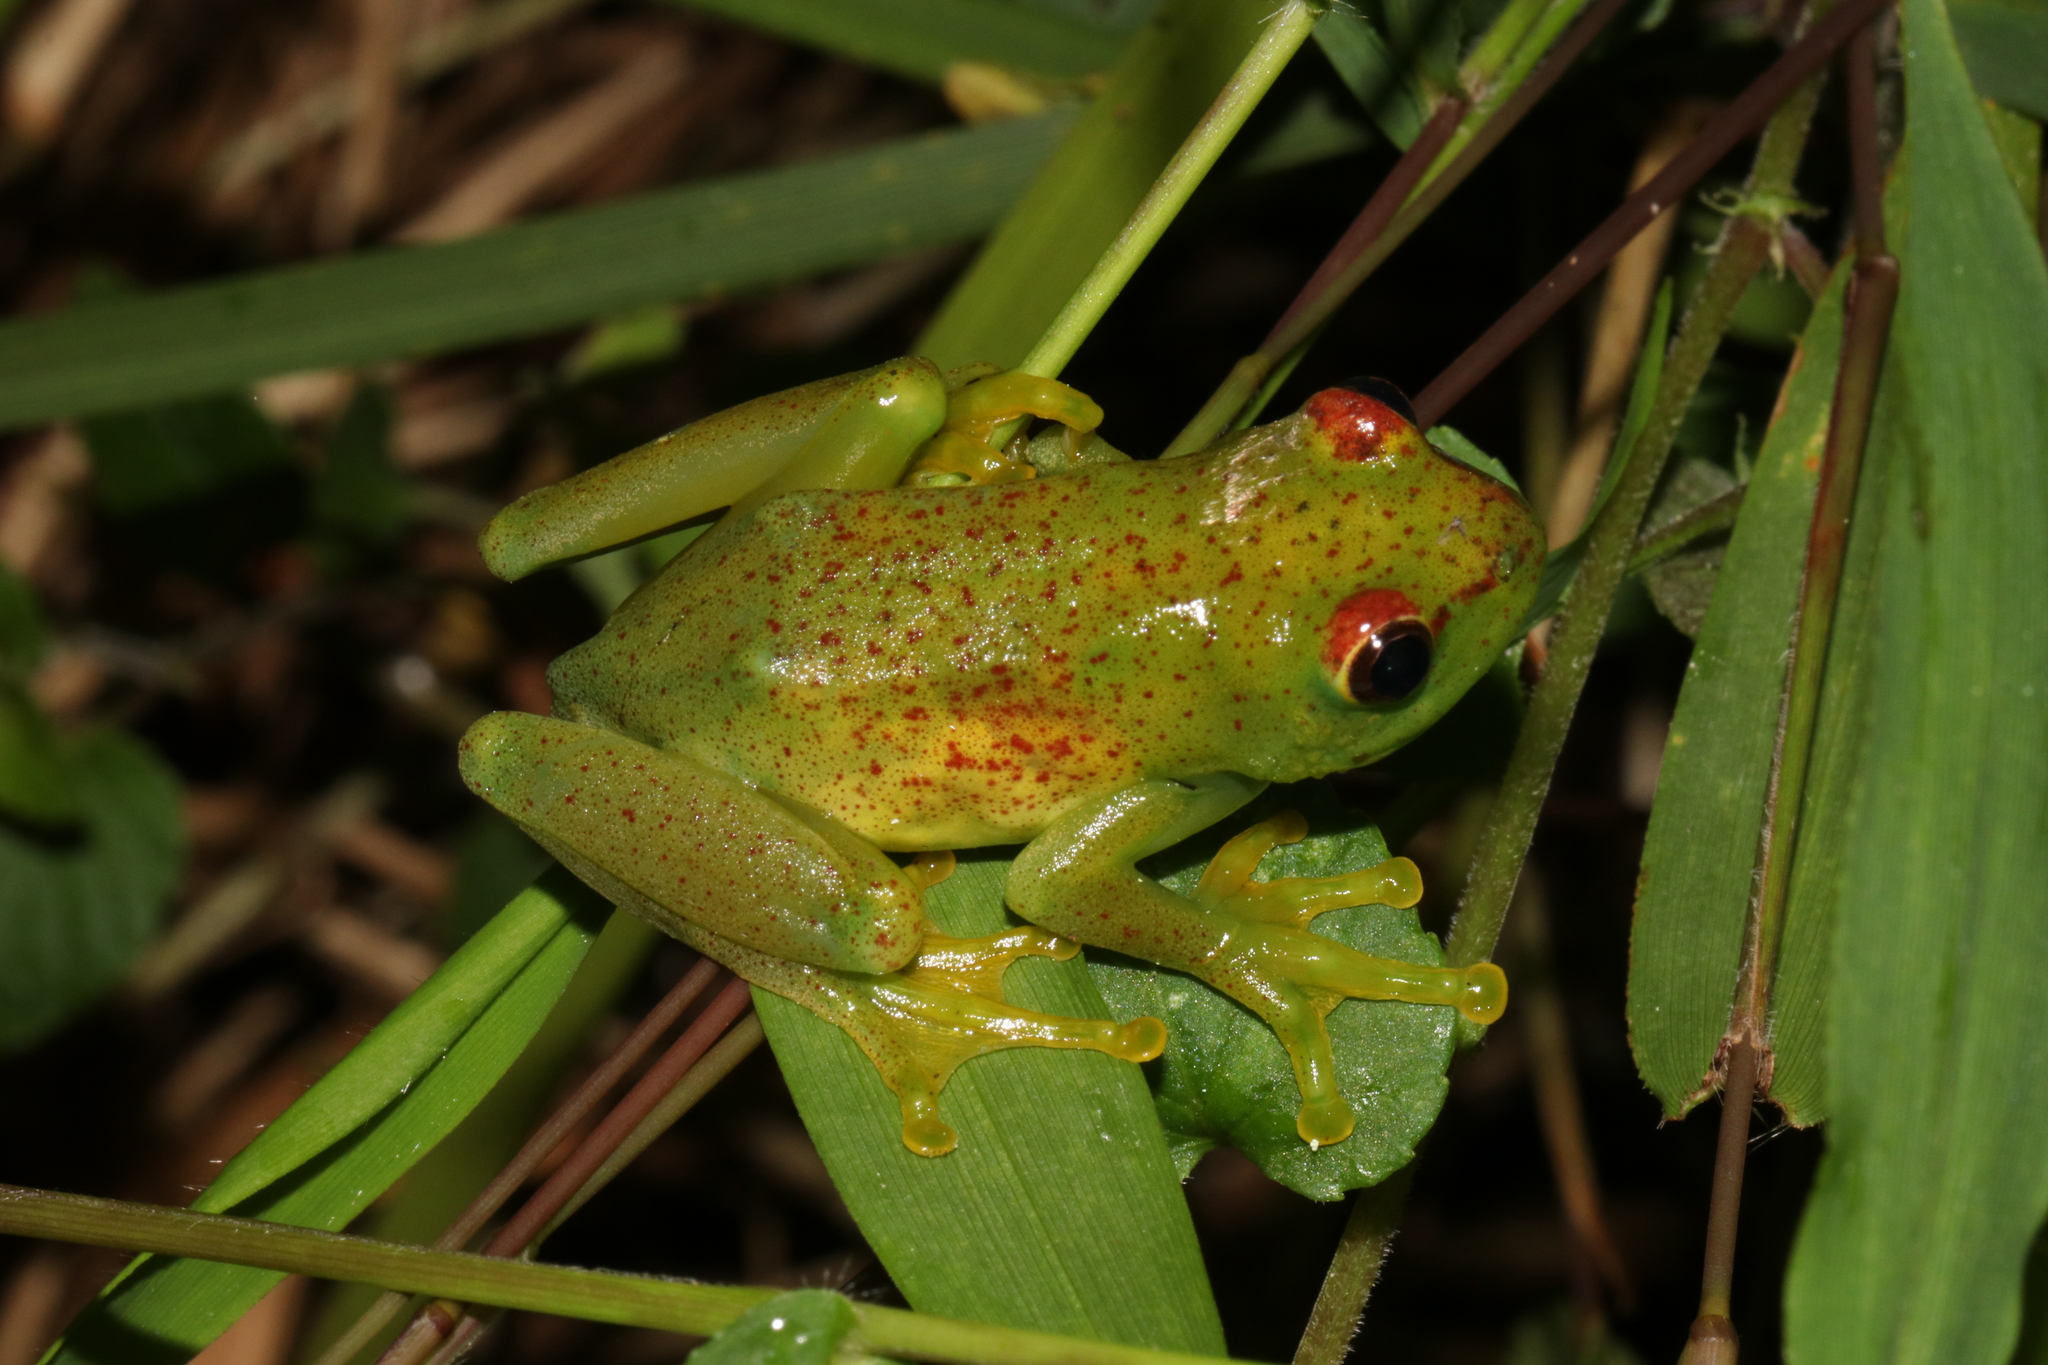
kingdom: Animalia
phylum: Chordata
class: Amphibia
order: Anura
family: Hyperoliidae
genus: Hyperolius
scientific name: Hyperolius pseudargus
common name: Mette's reed frog
